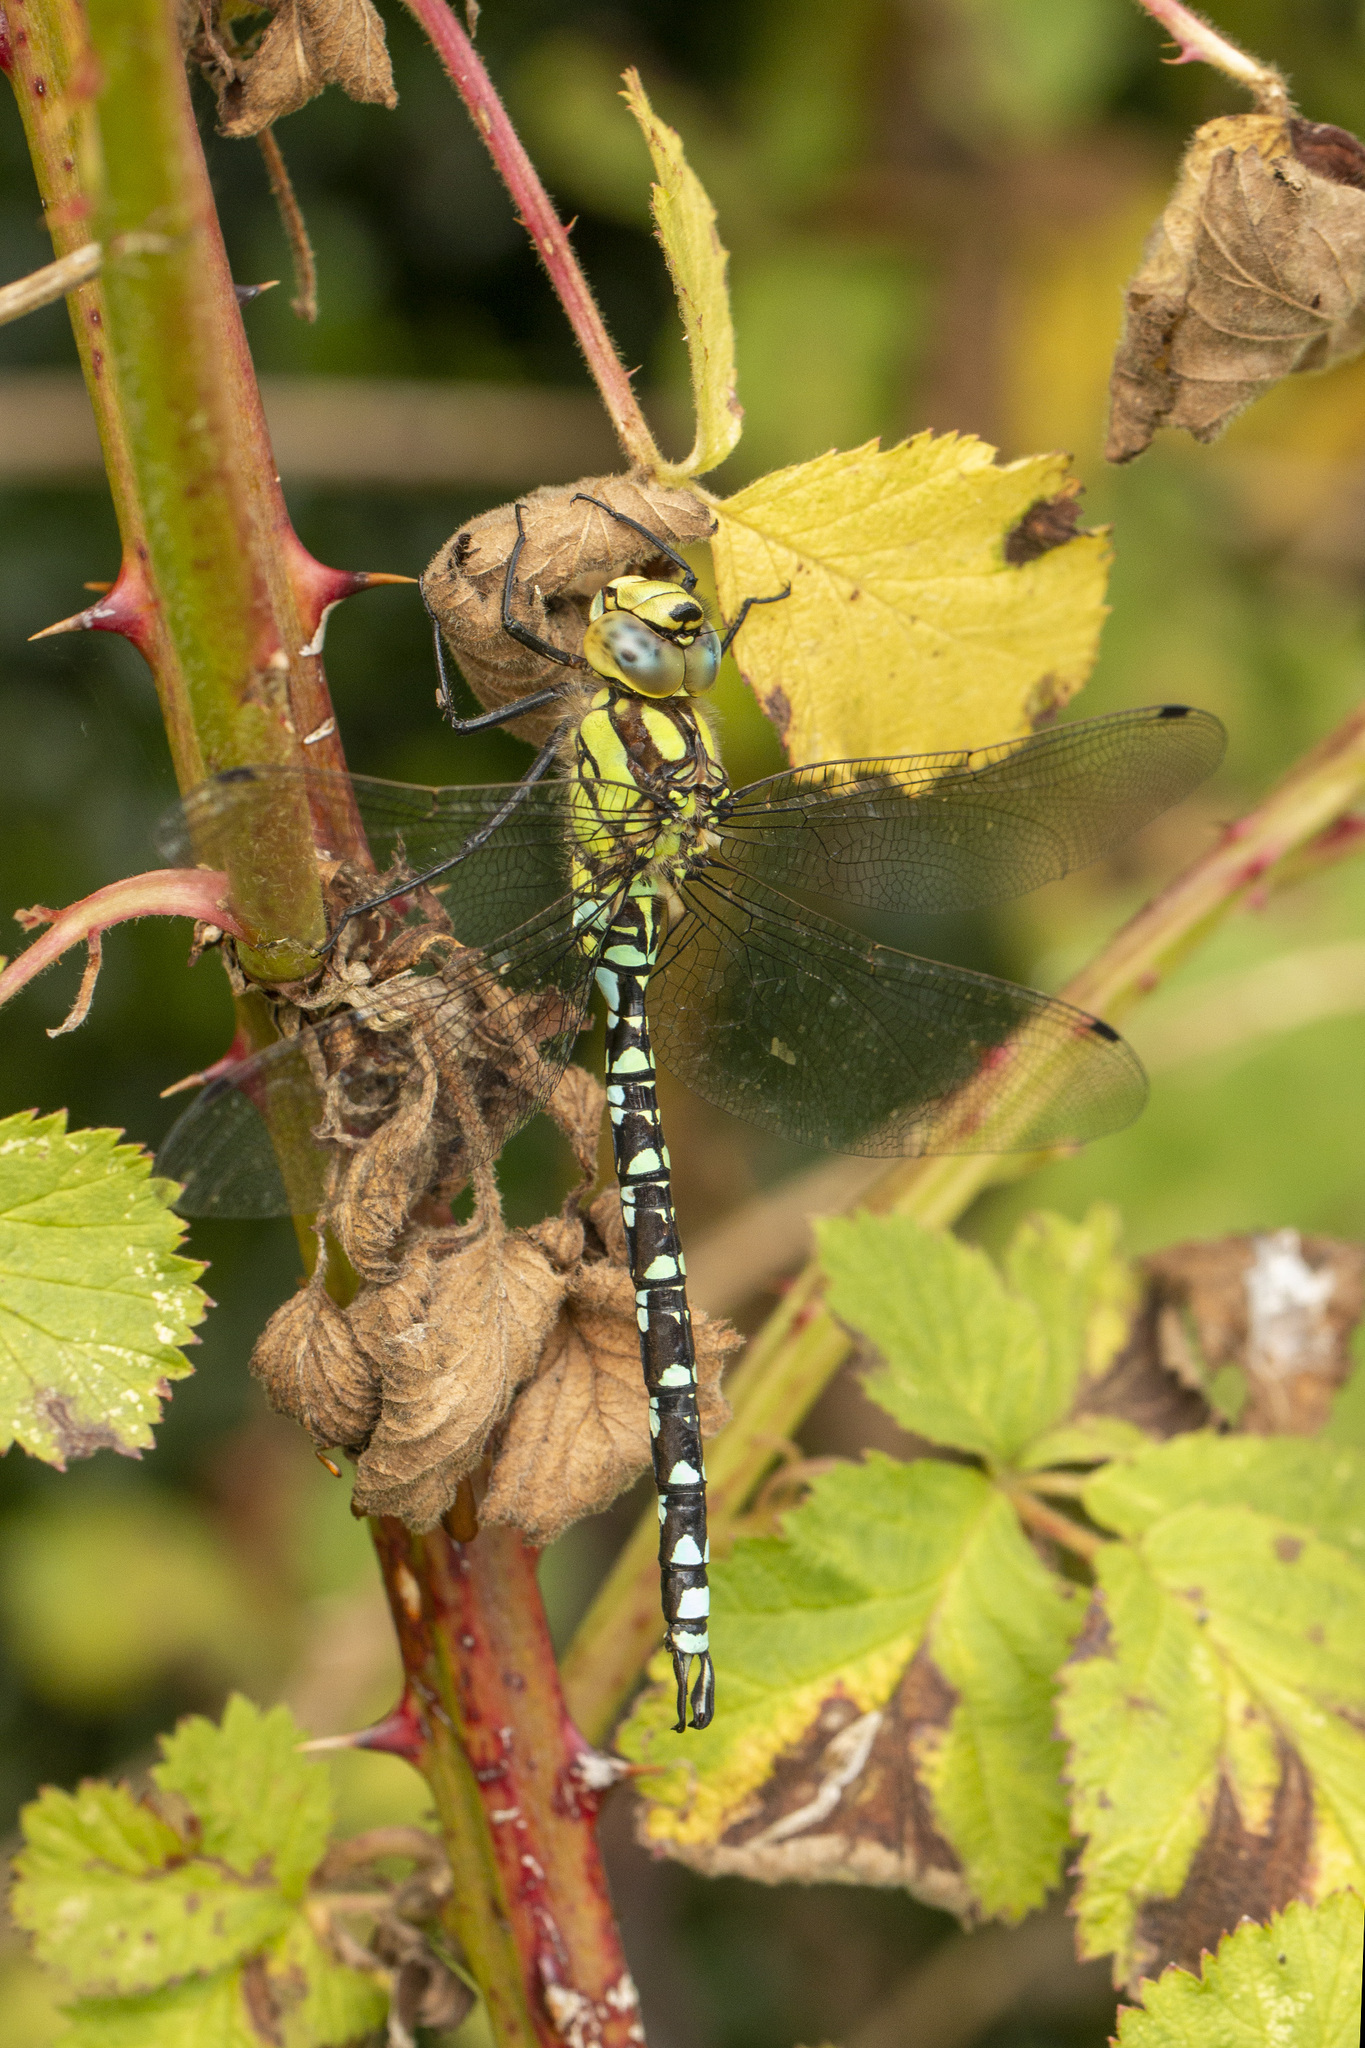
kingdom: Animalia
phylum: Arthropoda
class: Insecta
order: Odonata
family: Aeshnidae
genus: Aeshna
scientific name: Aeshna cyanea
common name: Southern hawker
